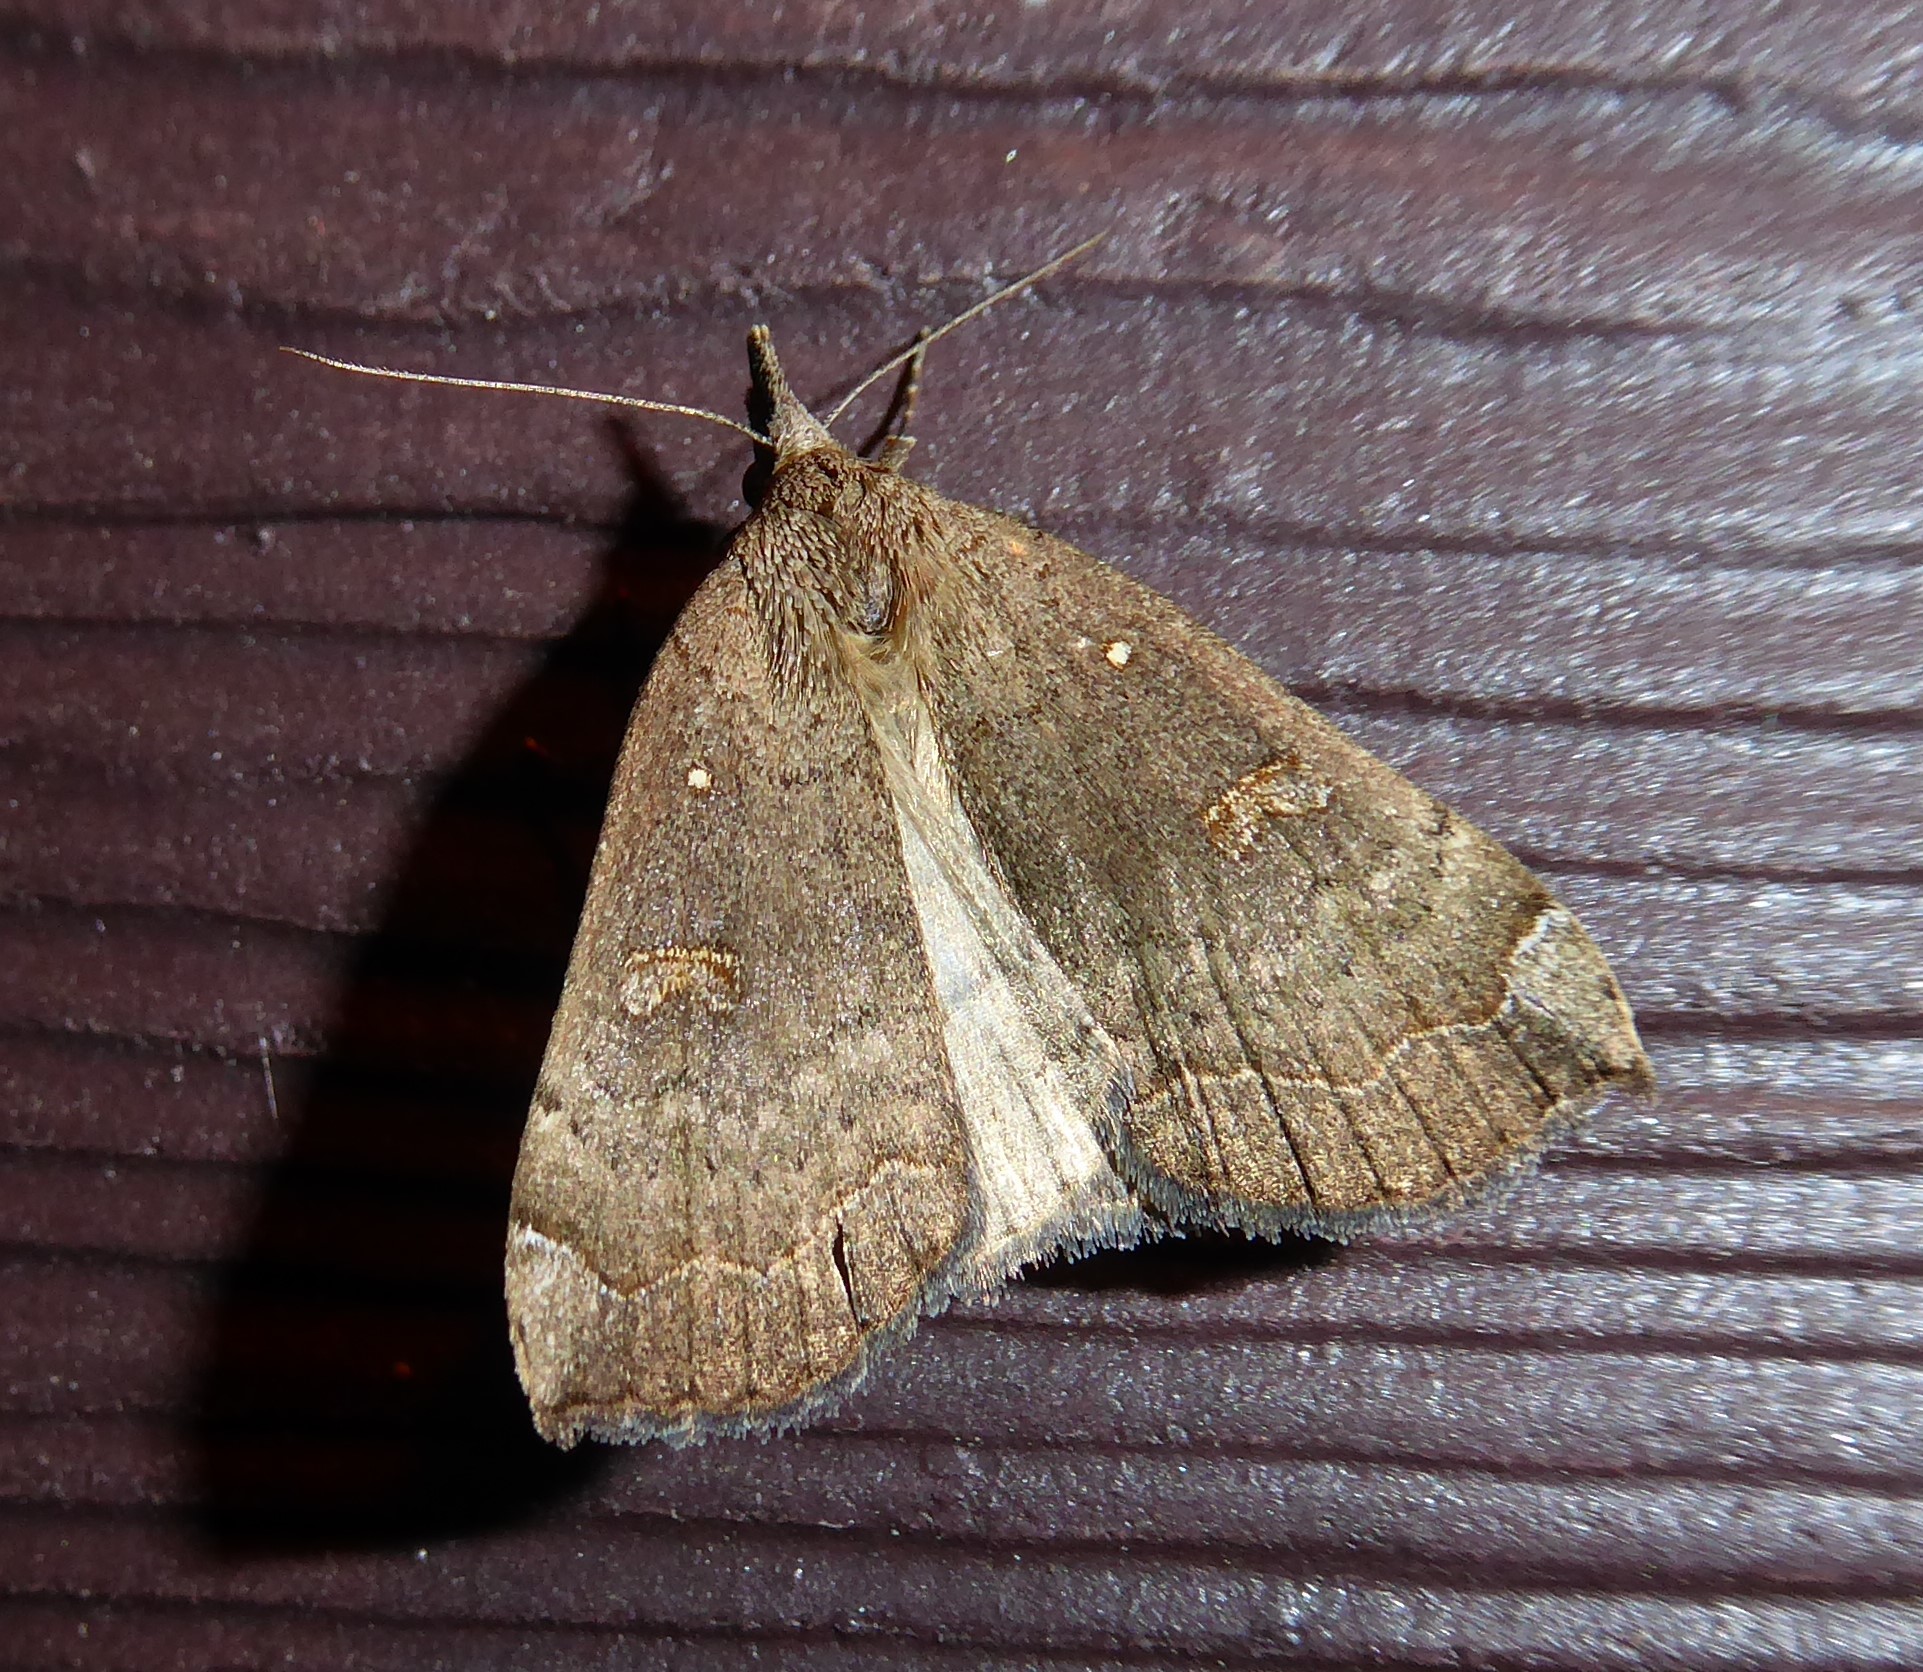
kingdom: Animalia
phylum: Arthropoda
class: Insecta
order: Lepidoptera
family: Erebidae
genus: Rhapsa
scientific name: Rhapsa scotosialis
